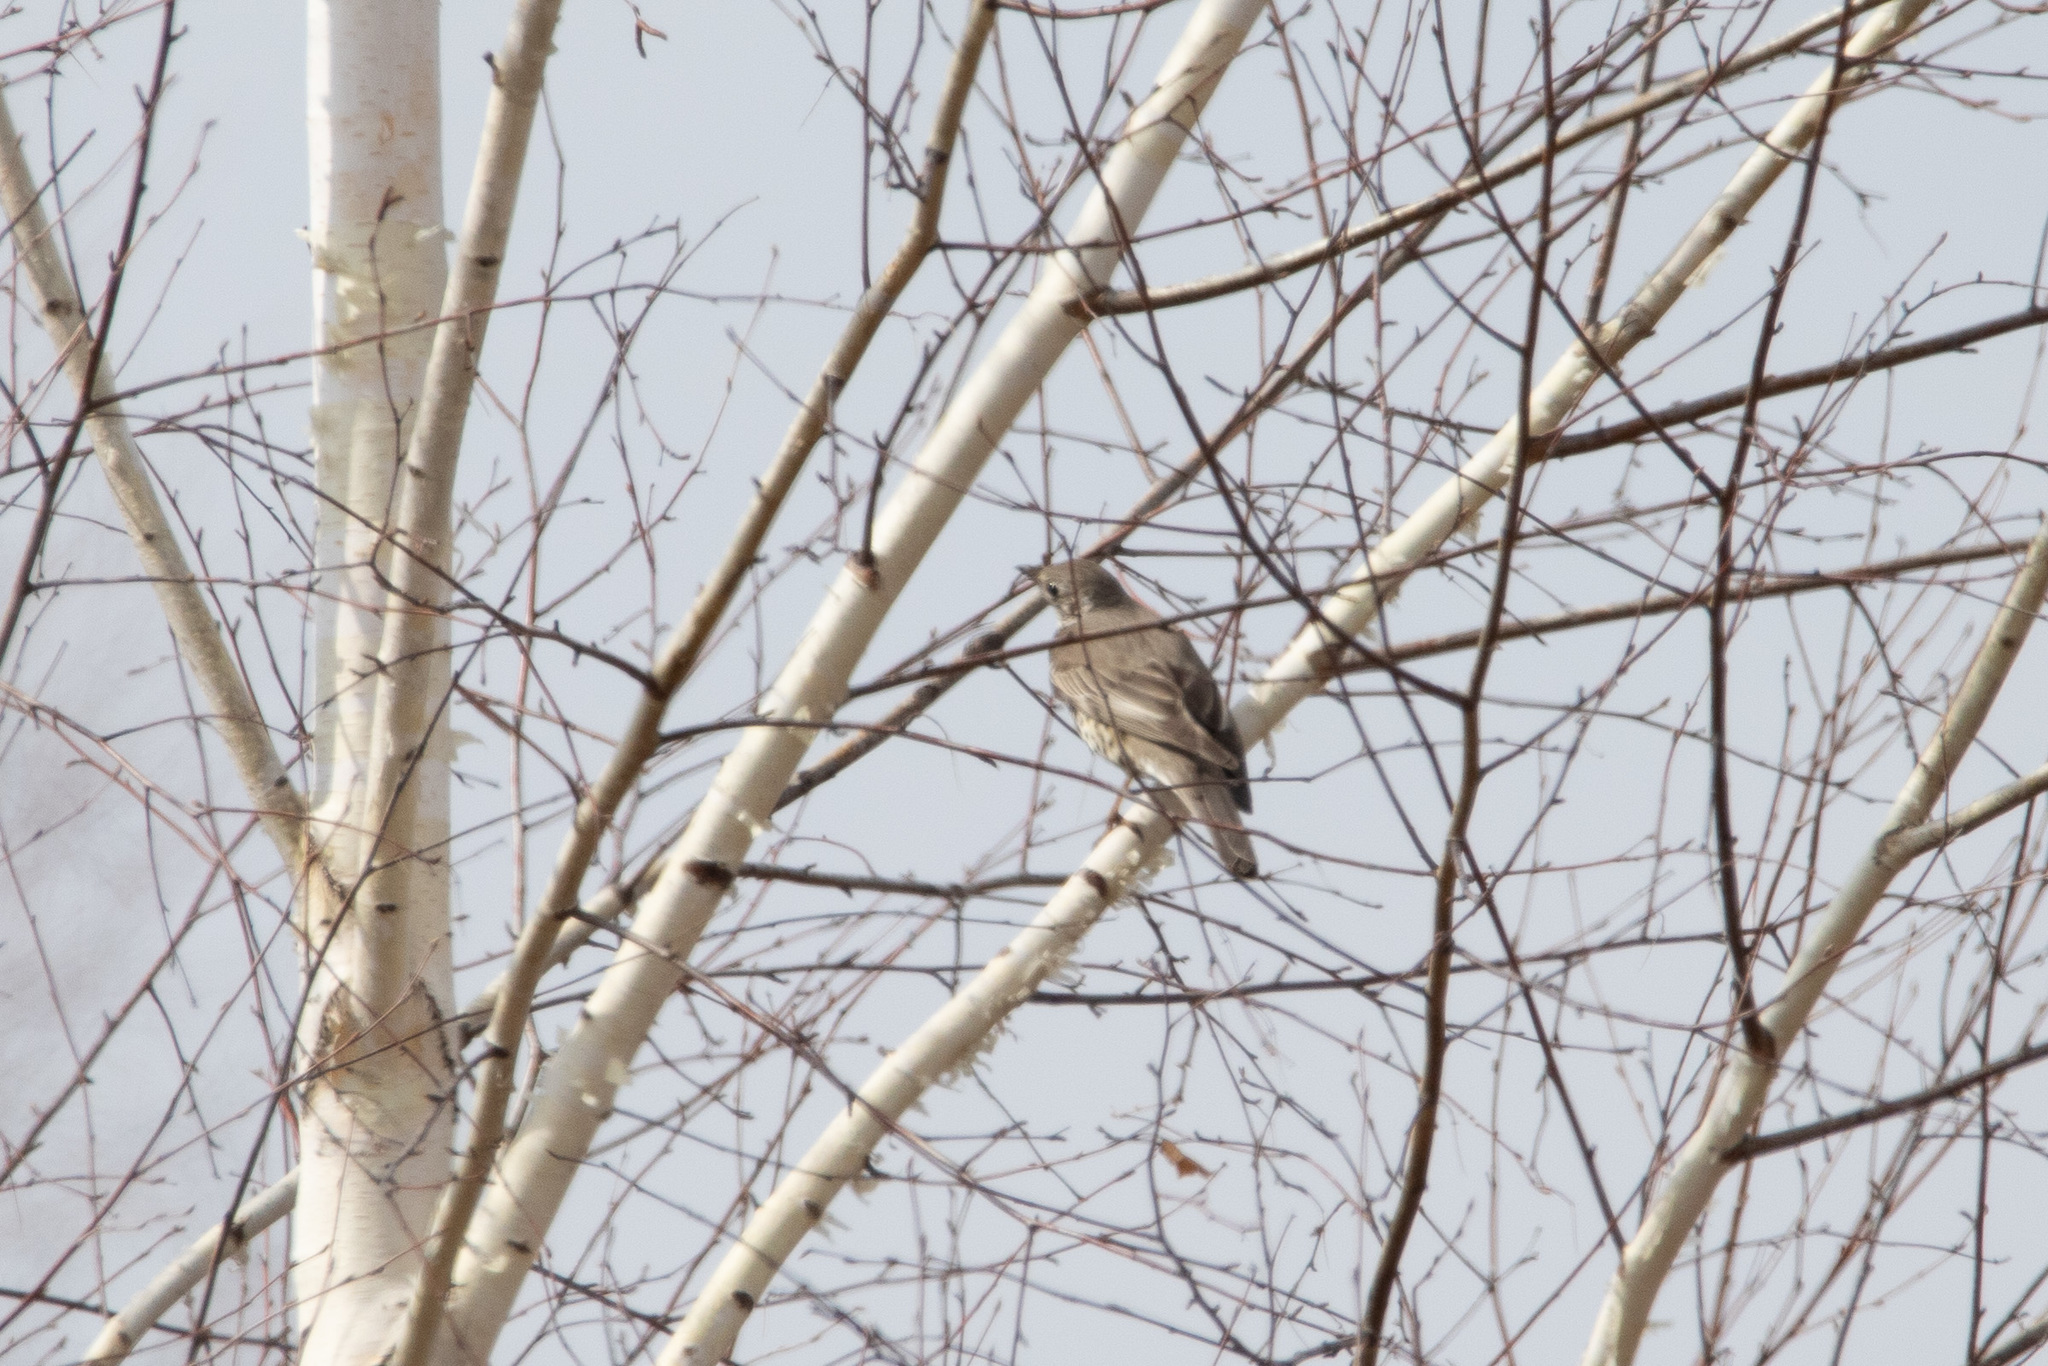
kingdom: Animalia
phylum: Chordata
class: Aves
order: Passeriformes
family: Turdidae
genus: Turdus
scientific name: Turdus viscivorus
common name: Mistle thrush
